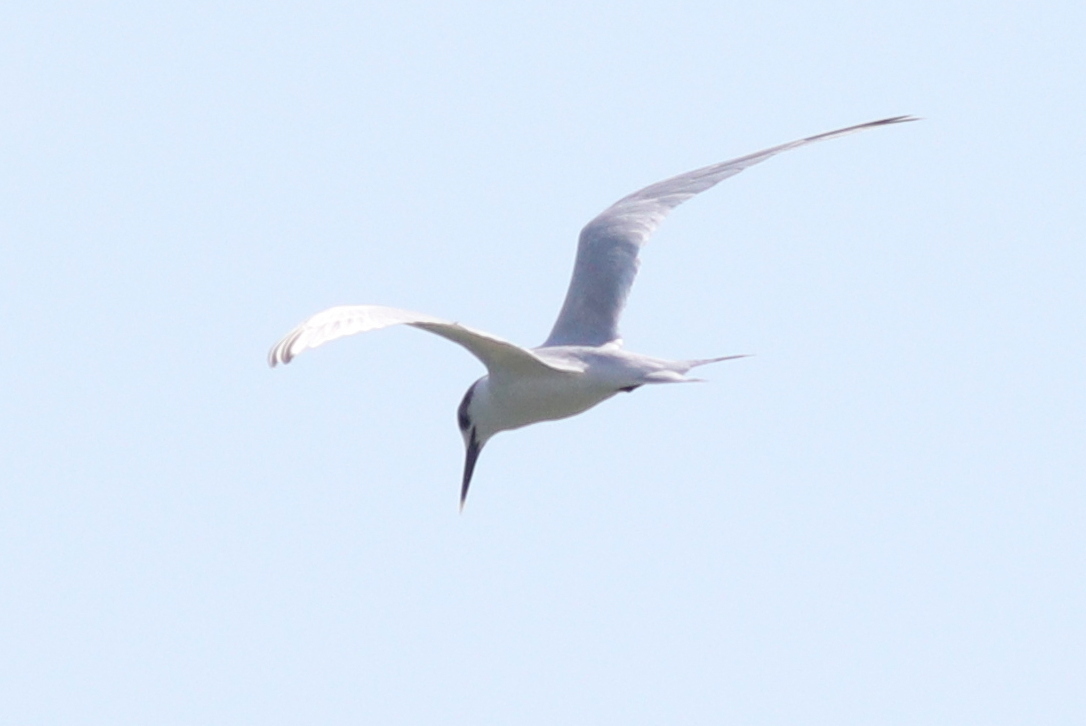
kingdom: Animalia
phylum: Chordata
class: Aves
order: Charadriiformes
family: Laridae
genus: Thalasseus
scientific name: Thalasseus sandvicensis
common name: Sandwich tern
